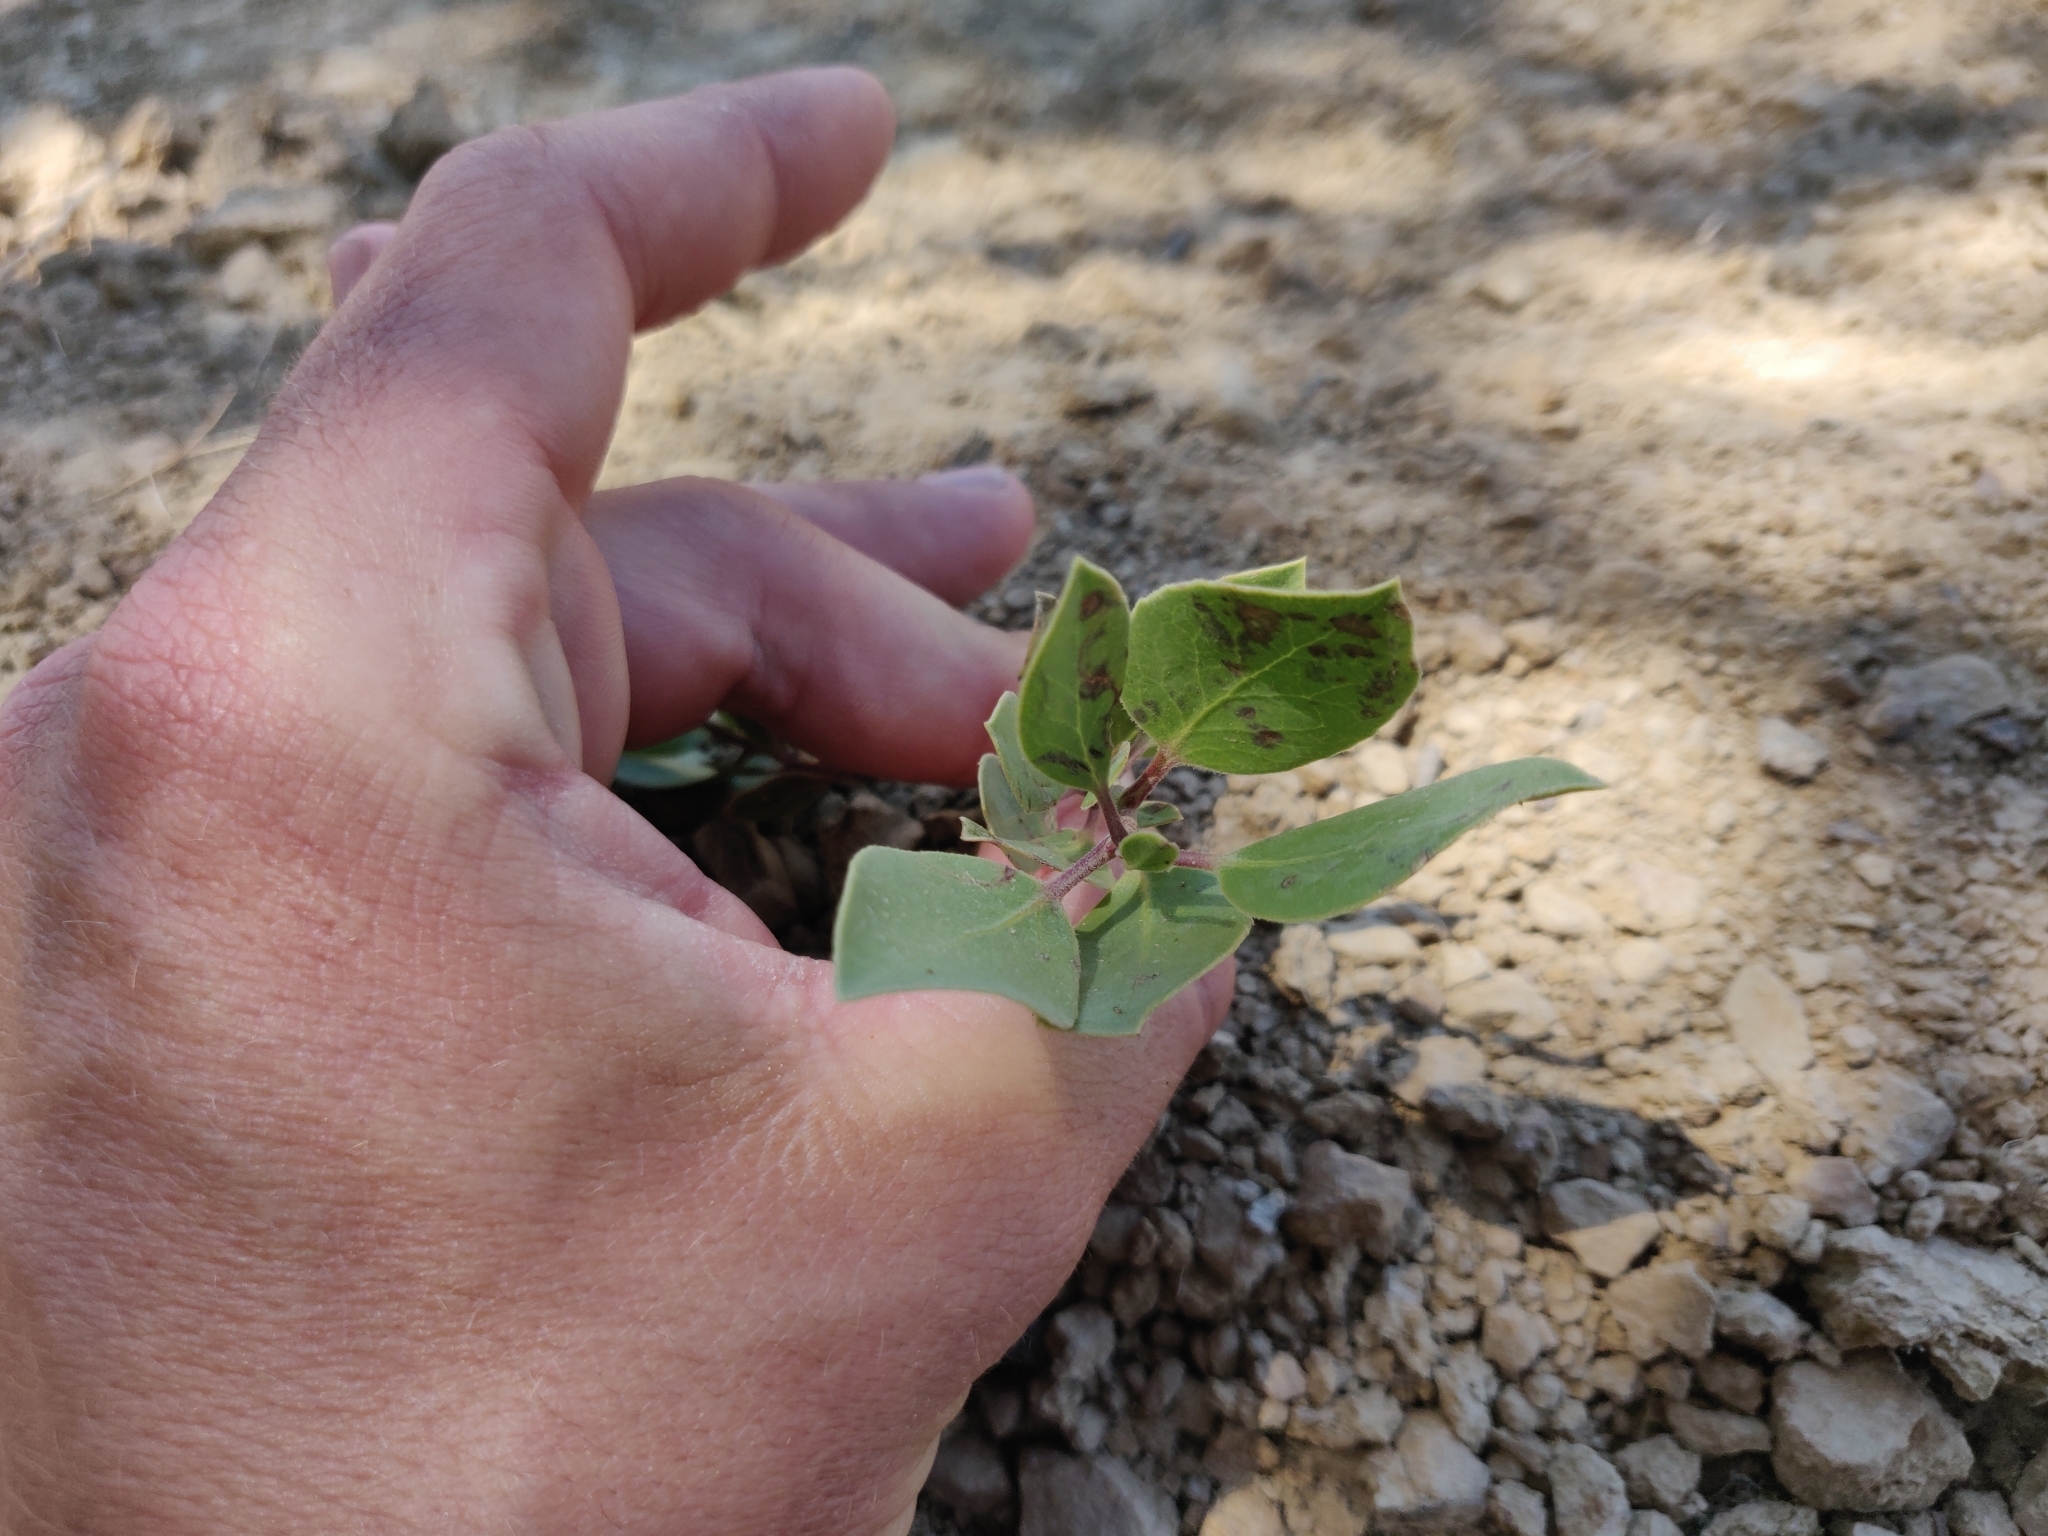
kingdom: Plantae
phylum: Tracheophyta
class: Magnoliopsida
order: Ericales
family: Ericaceae
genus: Arctostaphylos
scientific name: Arctostaphylos manzanita
